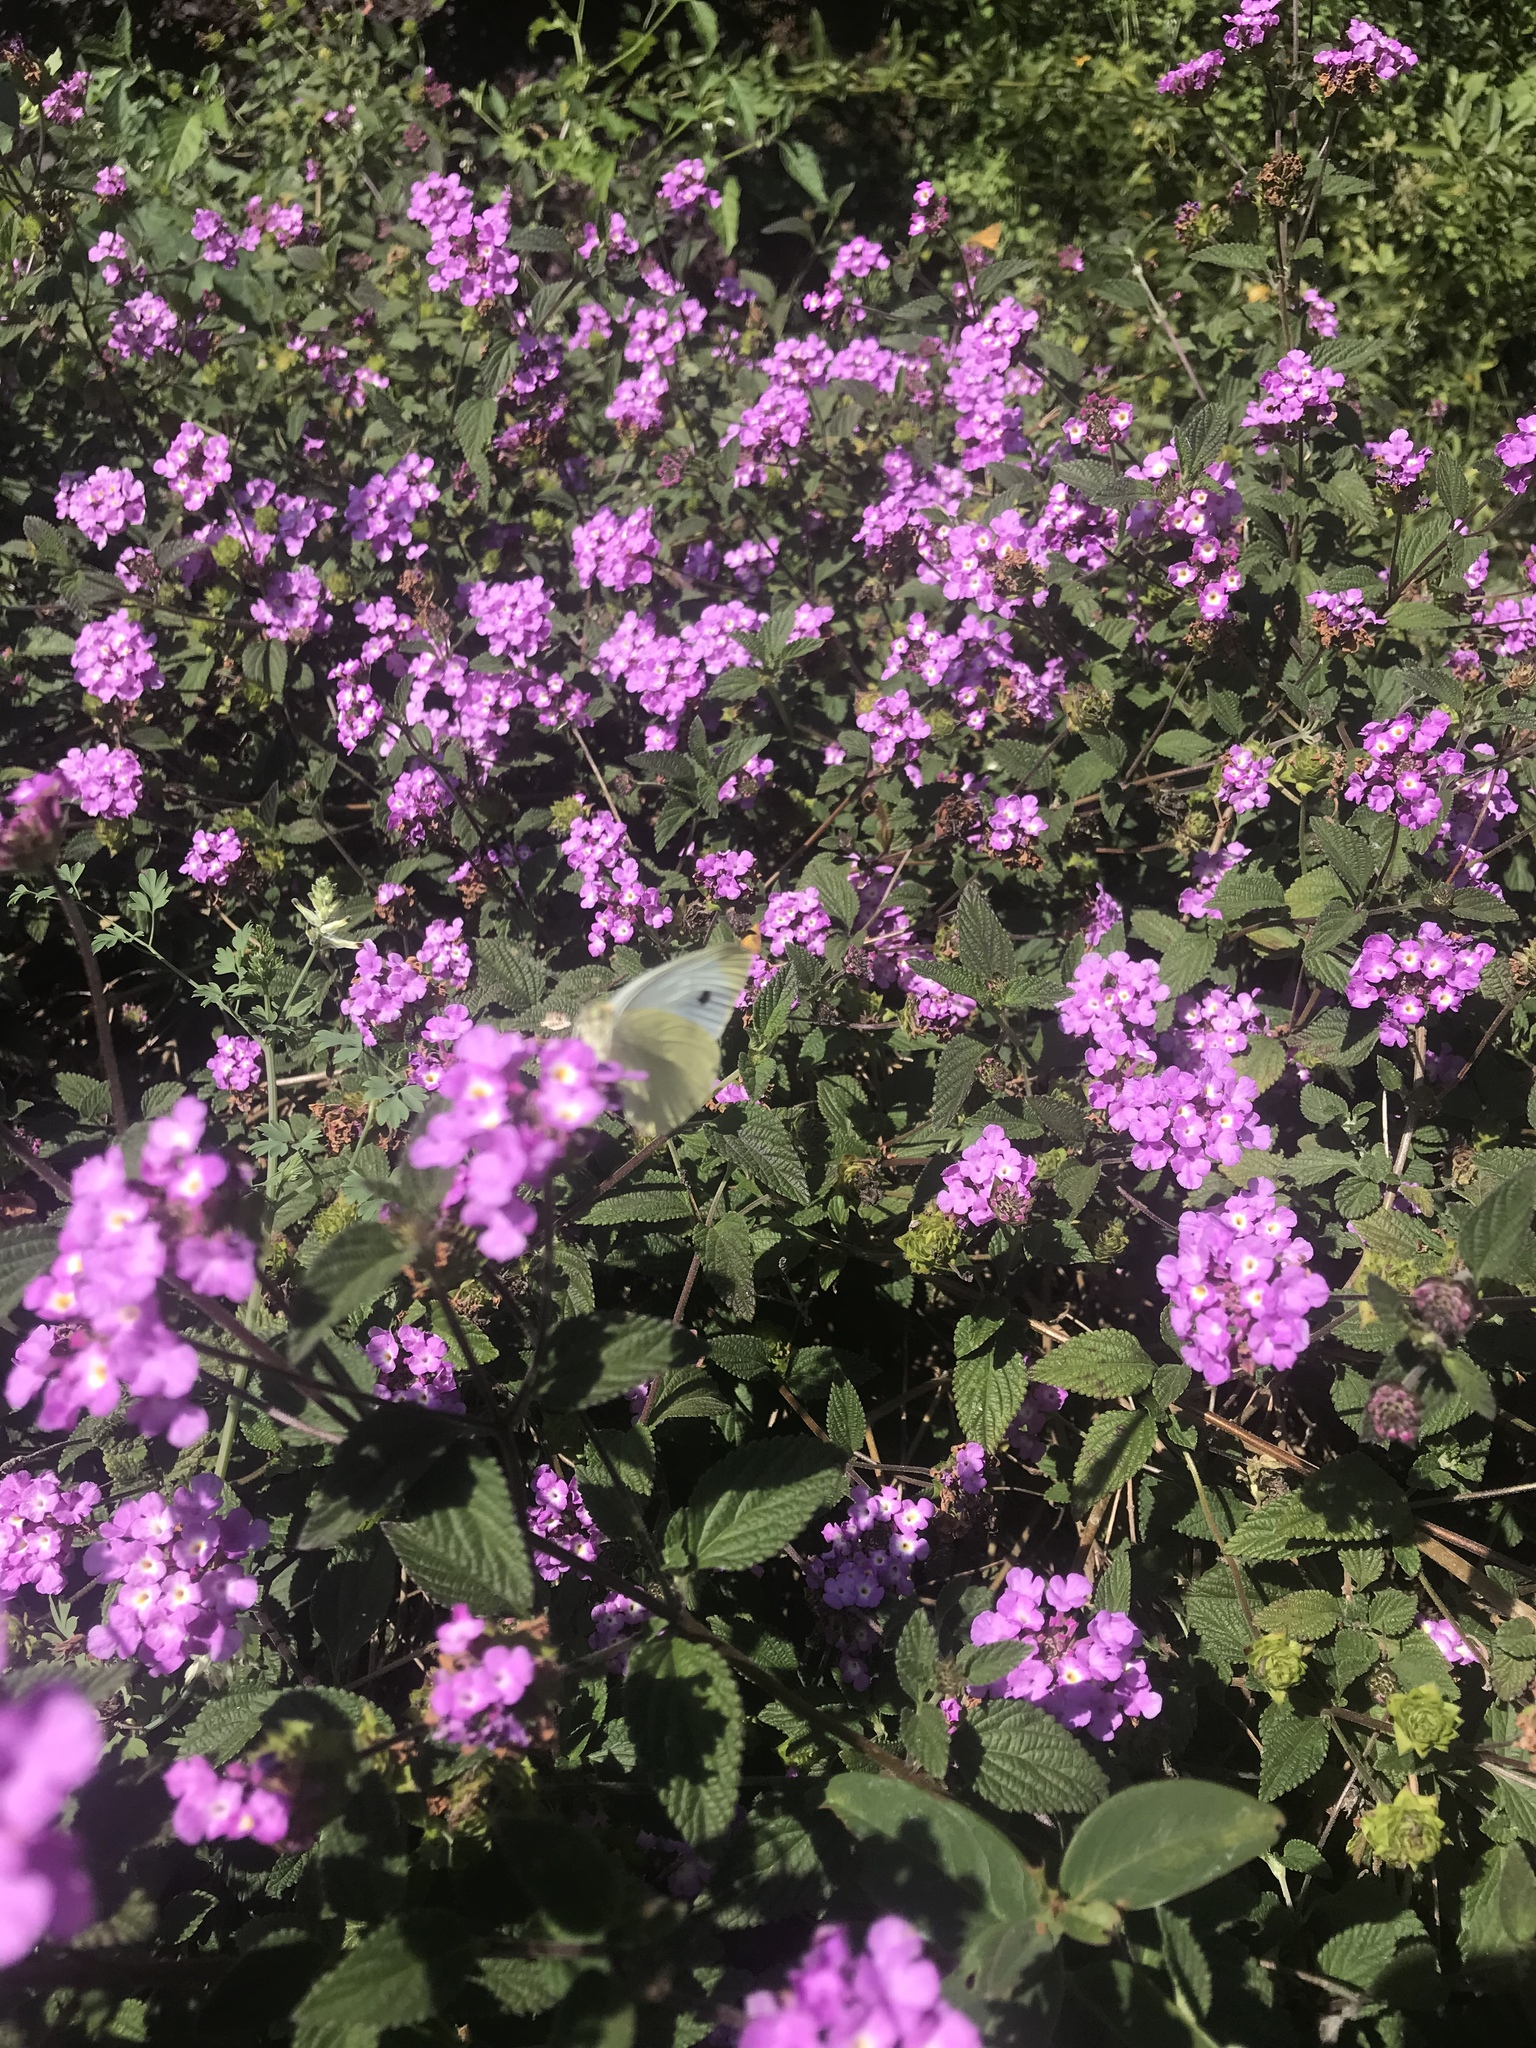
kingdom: Animalia
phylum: Arthropoda
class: Insecta
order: Lepidoptera
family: Pieridae
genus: Pieris
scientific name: Pieris rapae
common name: Small white
